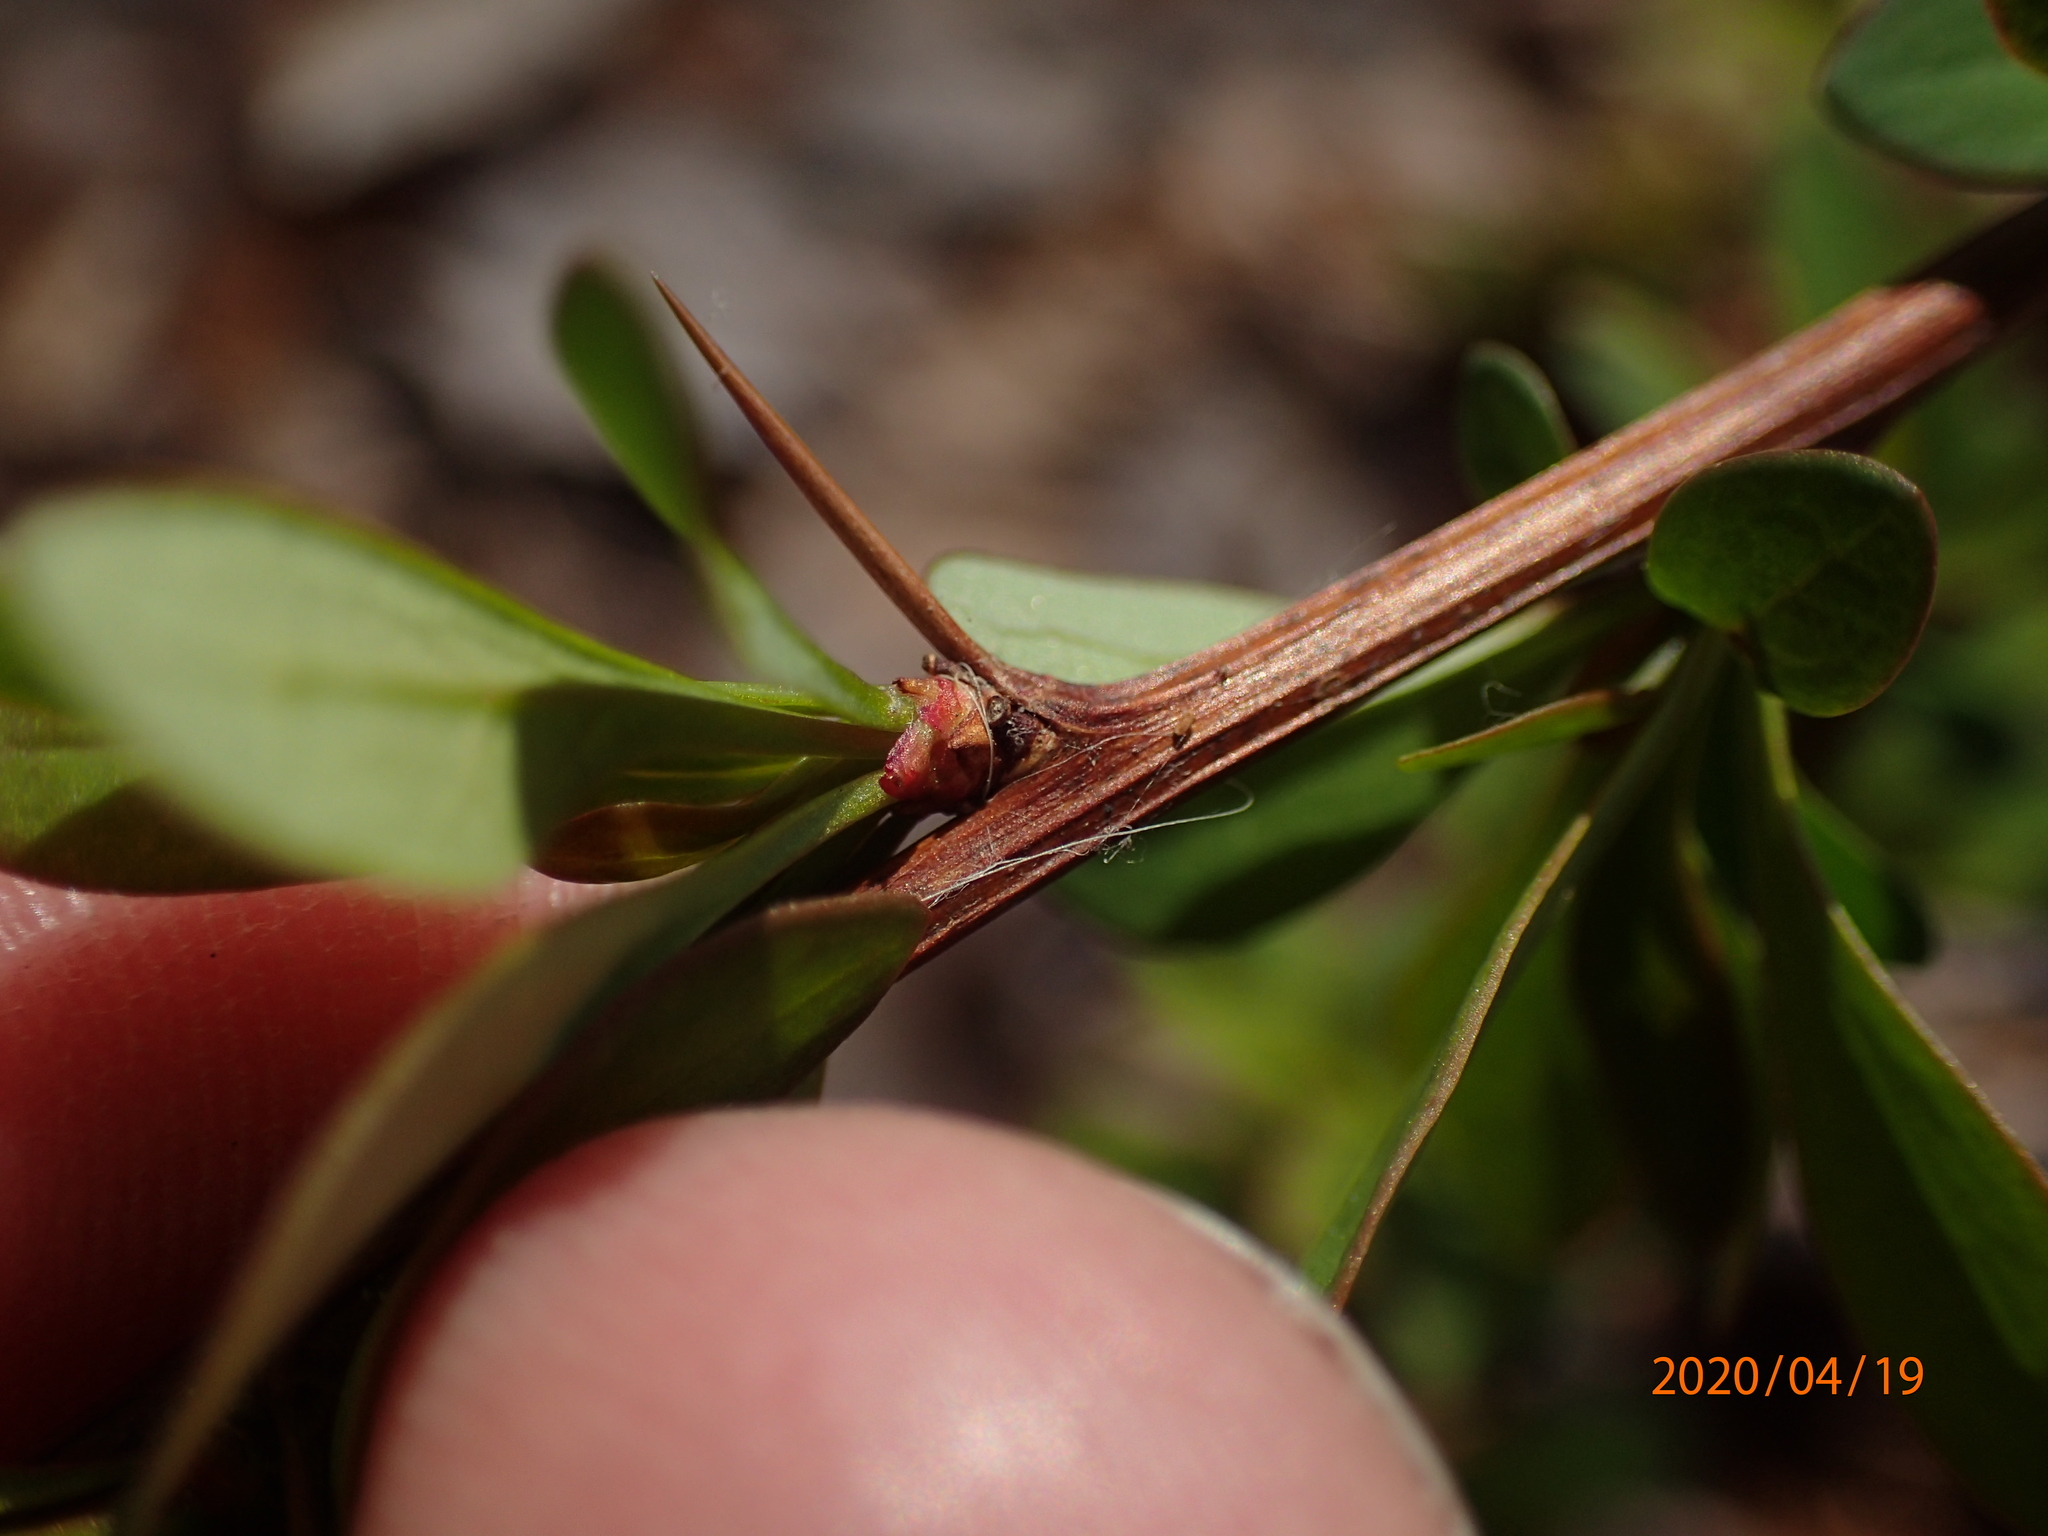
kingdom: Plantae
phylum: Tracheophyta
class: Magnoliopsida
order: Ranunculales
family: Berberidaceae
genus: Berberis
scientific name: Berberis thunbergii
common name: Japanese barberry
